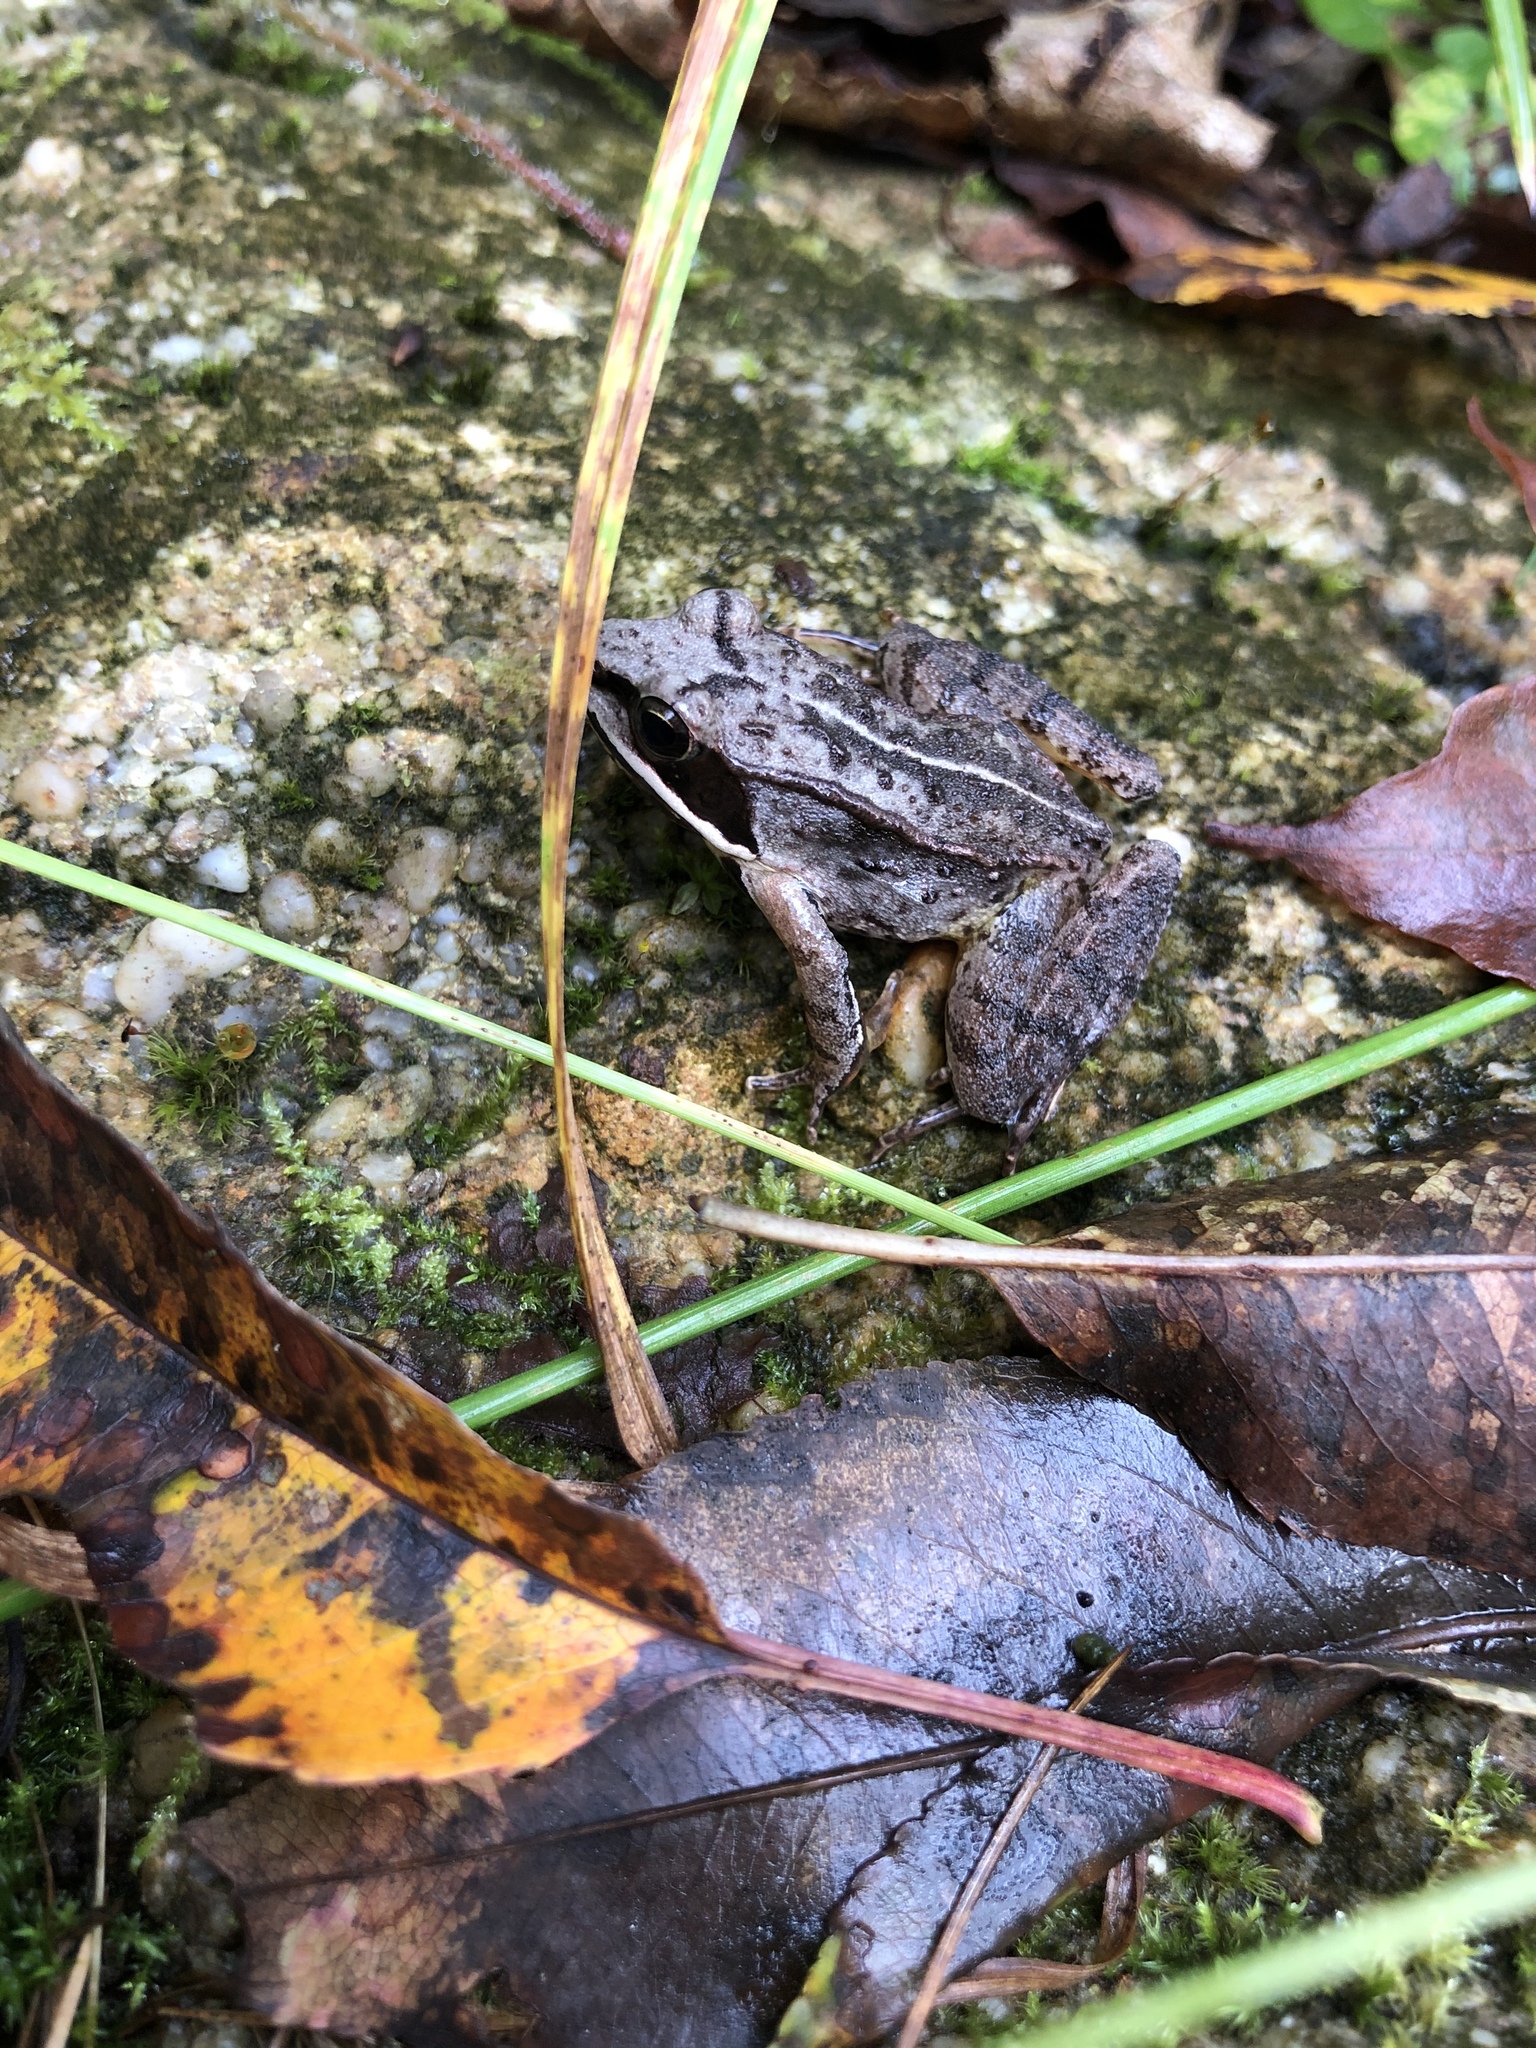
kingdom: Animalia
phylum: Chordata
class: Amphibia
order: Anura
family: Ranidae
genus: Lithobates
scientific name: Lithobates sylvaticus
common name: Wood frog
